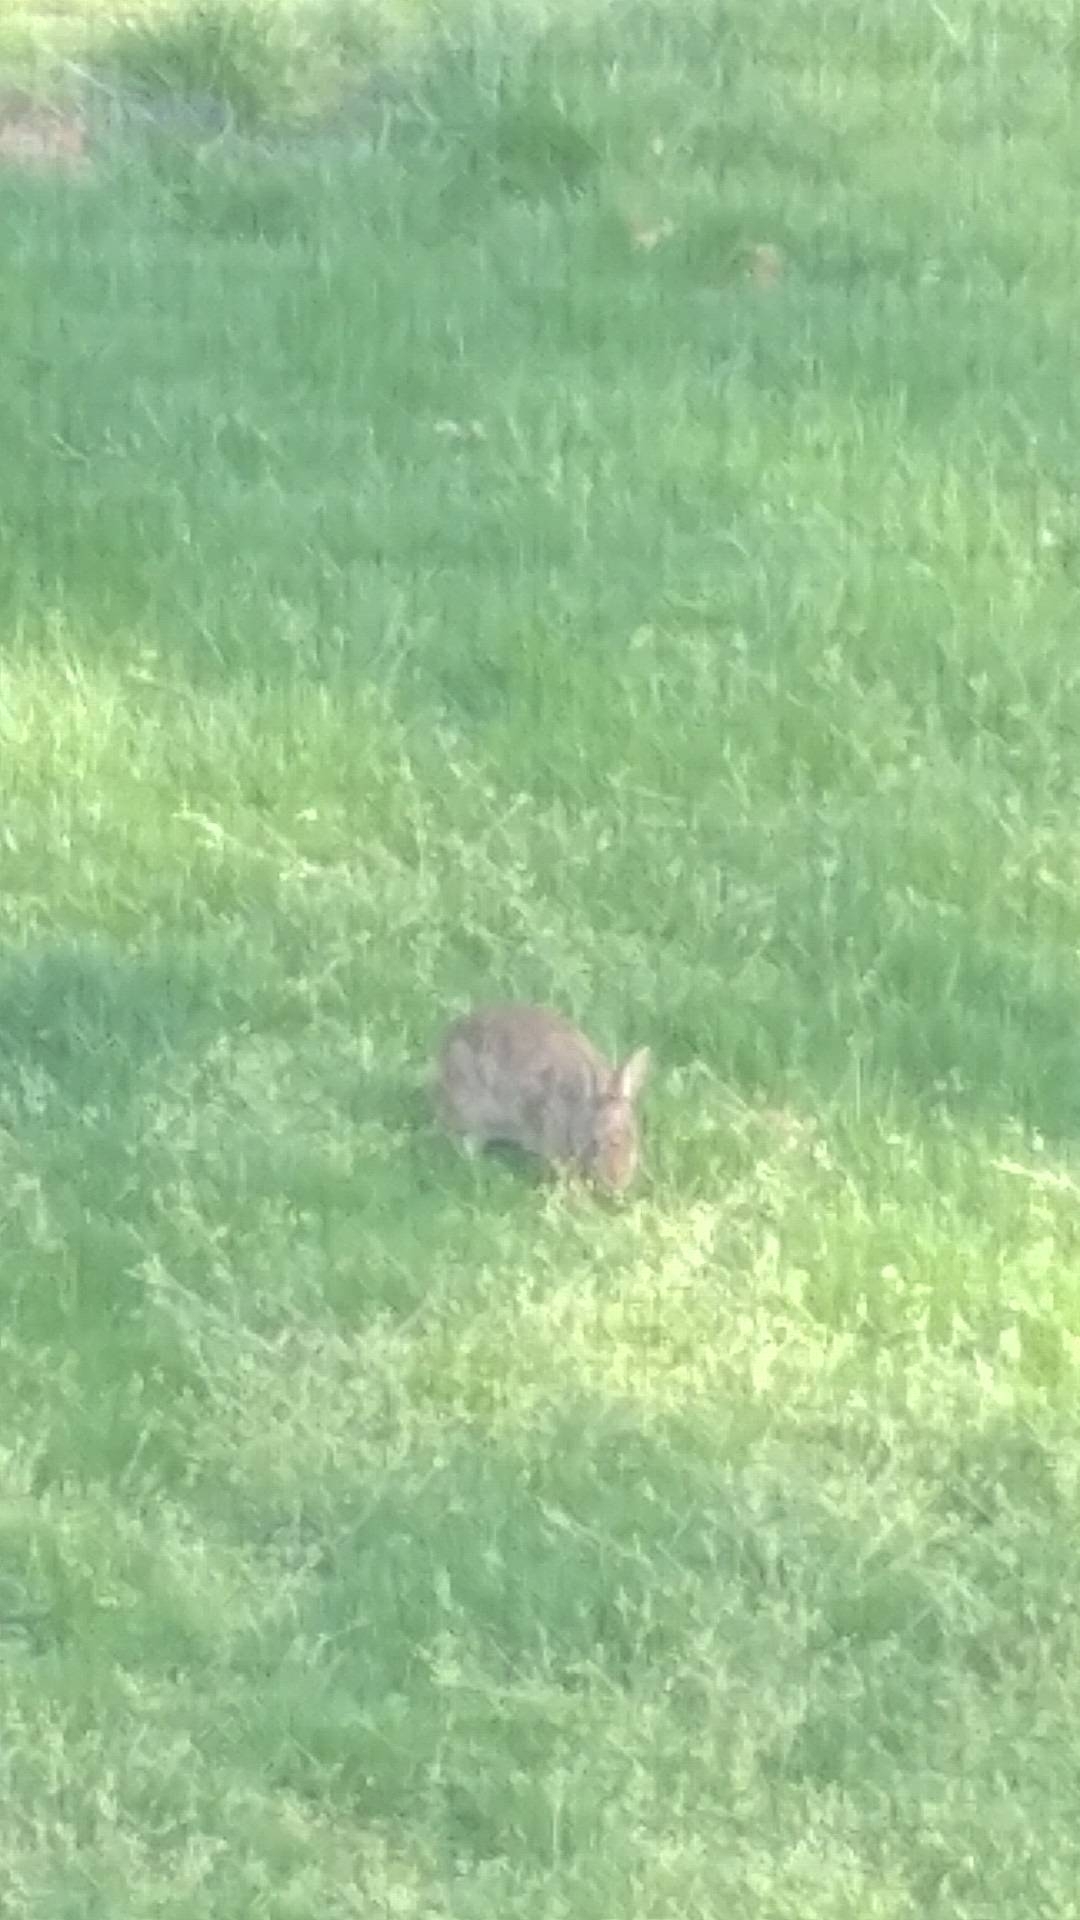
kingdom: Animalia
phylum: Chordata
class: Mammalia
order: Lagomorpha
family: Leporidae
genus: Sylvilagus
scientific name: Sylvilagus floridanus
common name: Eastern cottontail
